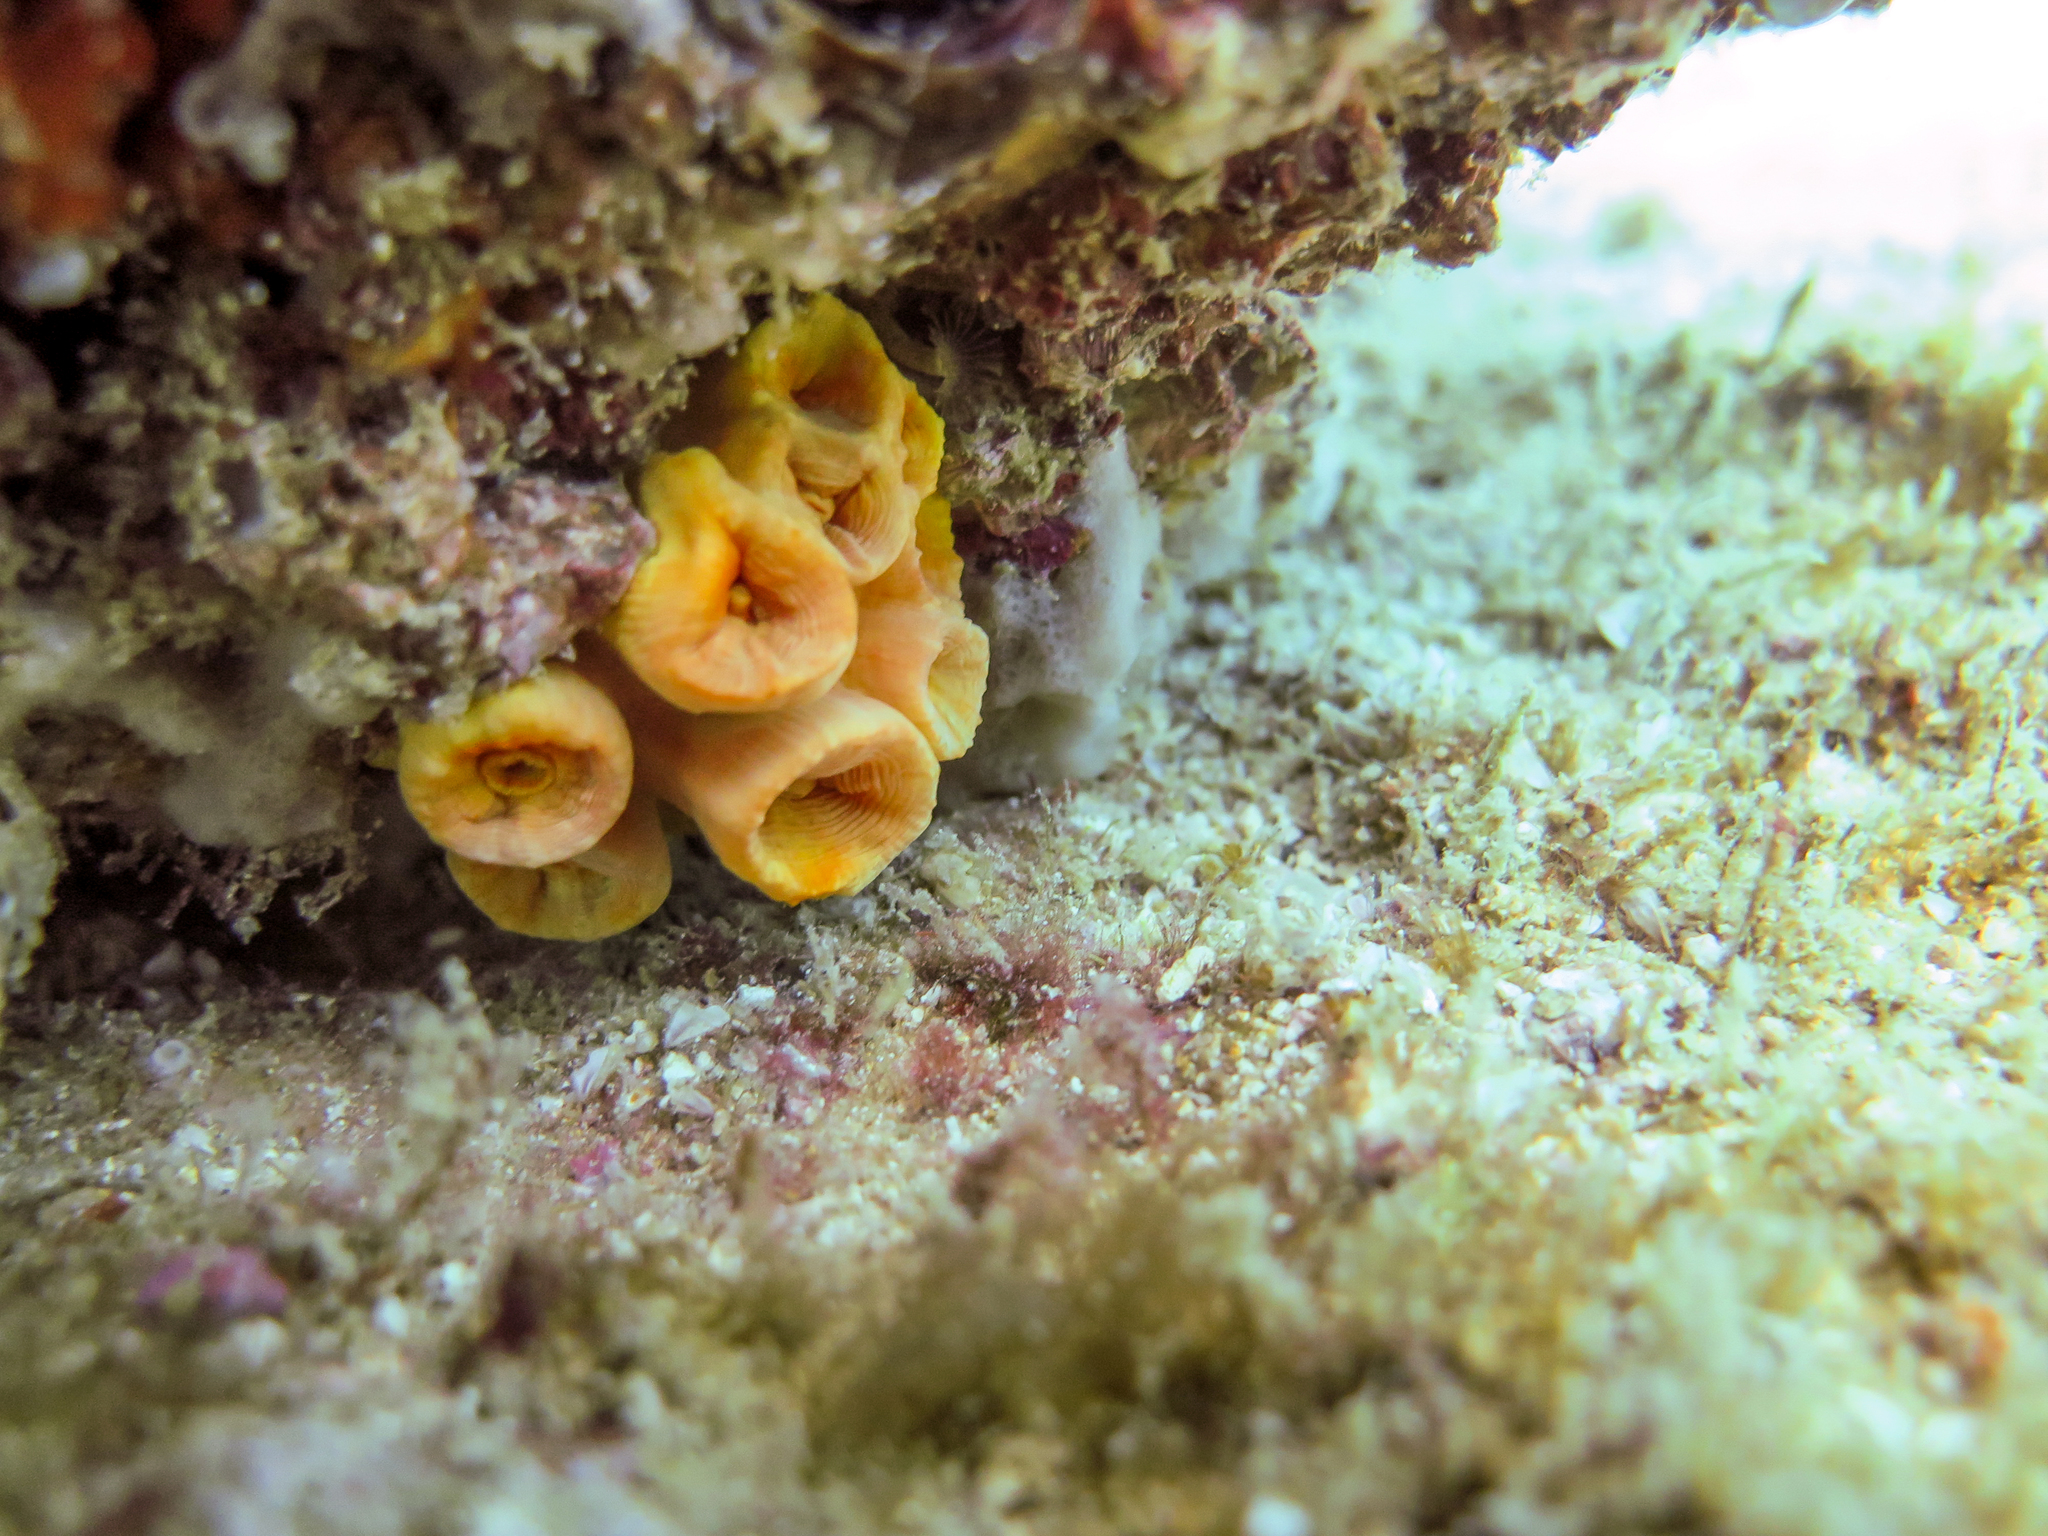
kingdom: Animalia
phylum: Cnidaria
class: Anthozoa
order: Scleractinia
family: Dendrophylliidae
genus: Tubastraea
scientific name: Tubastraea coccinea
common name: Orange cup coral
